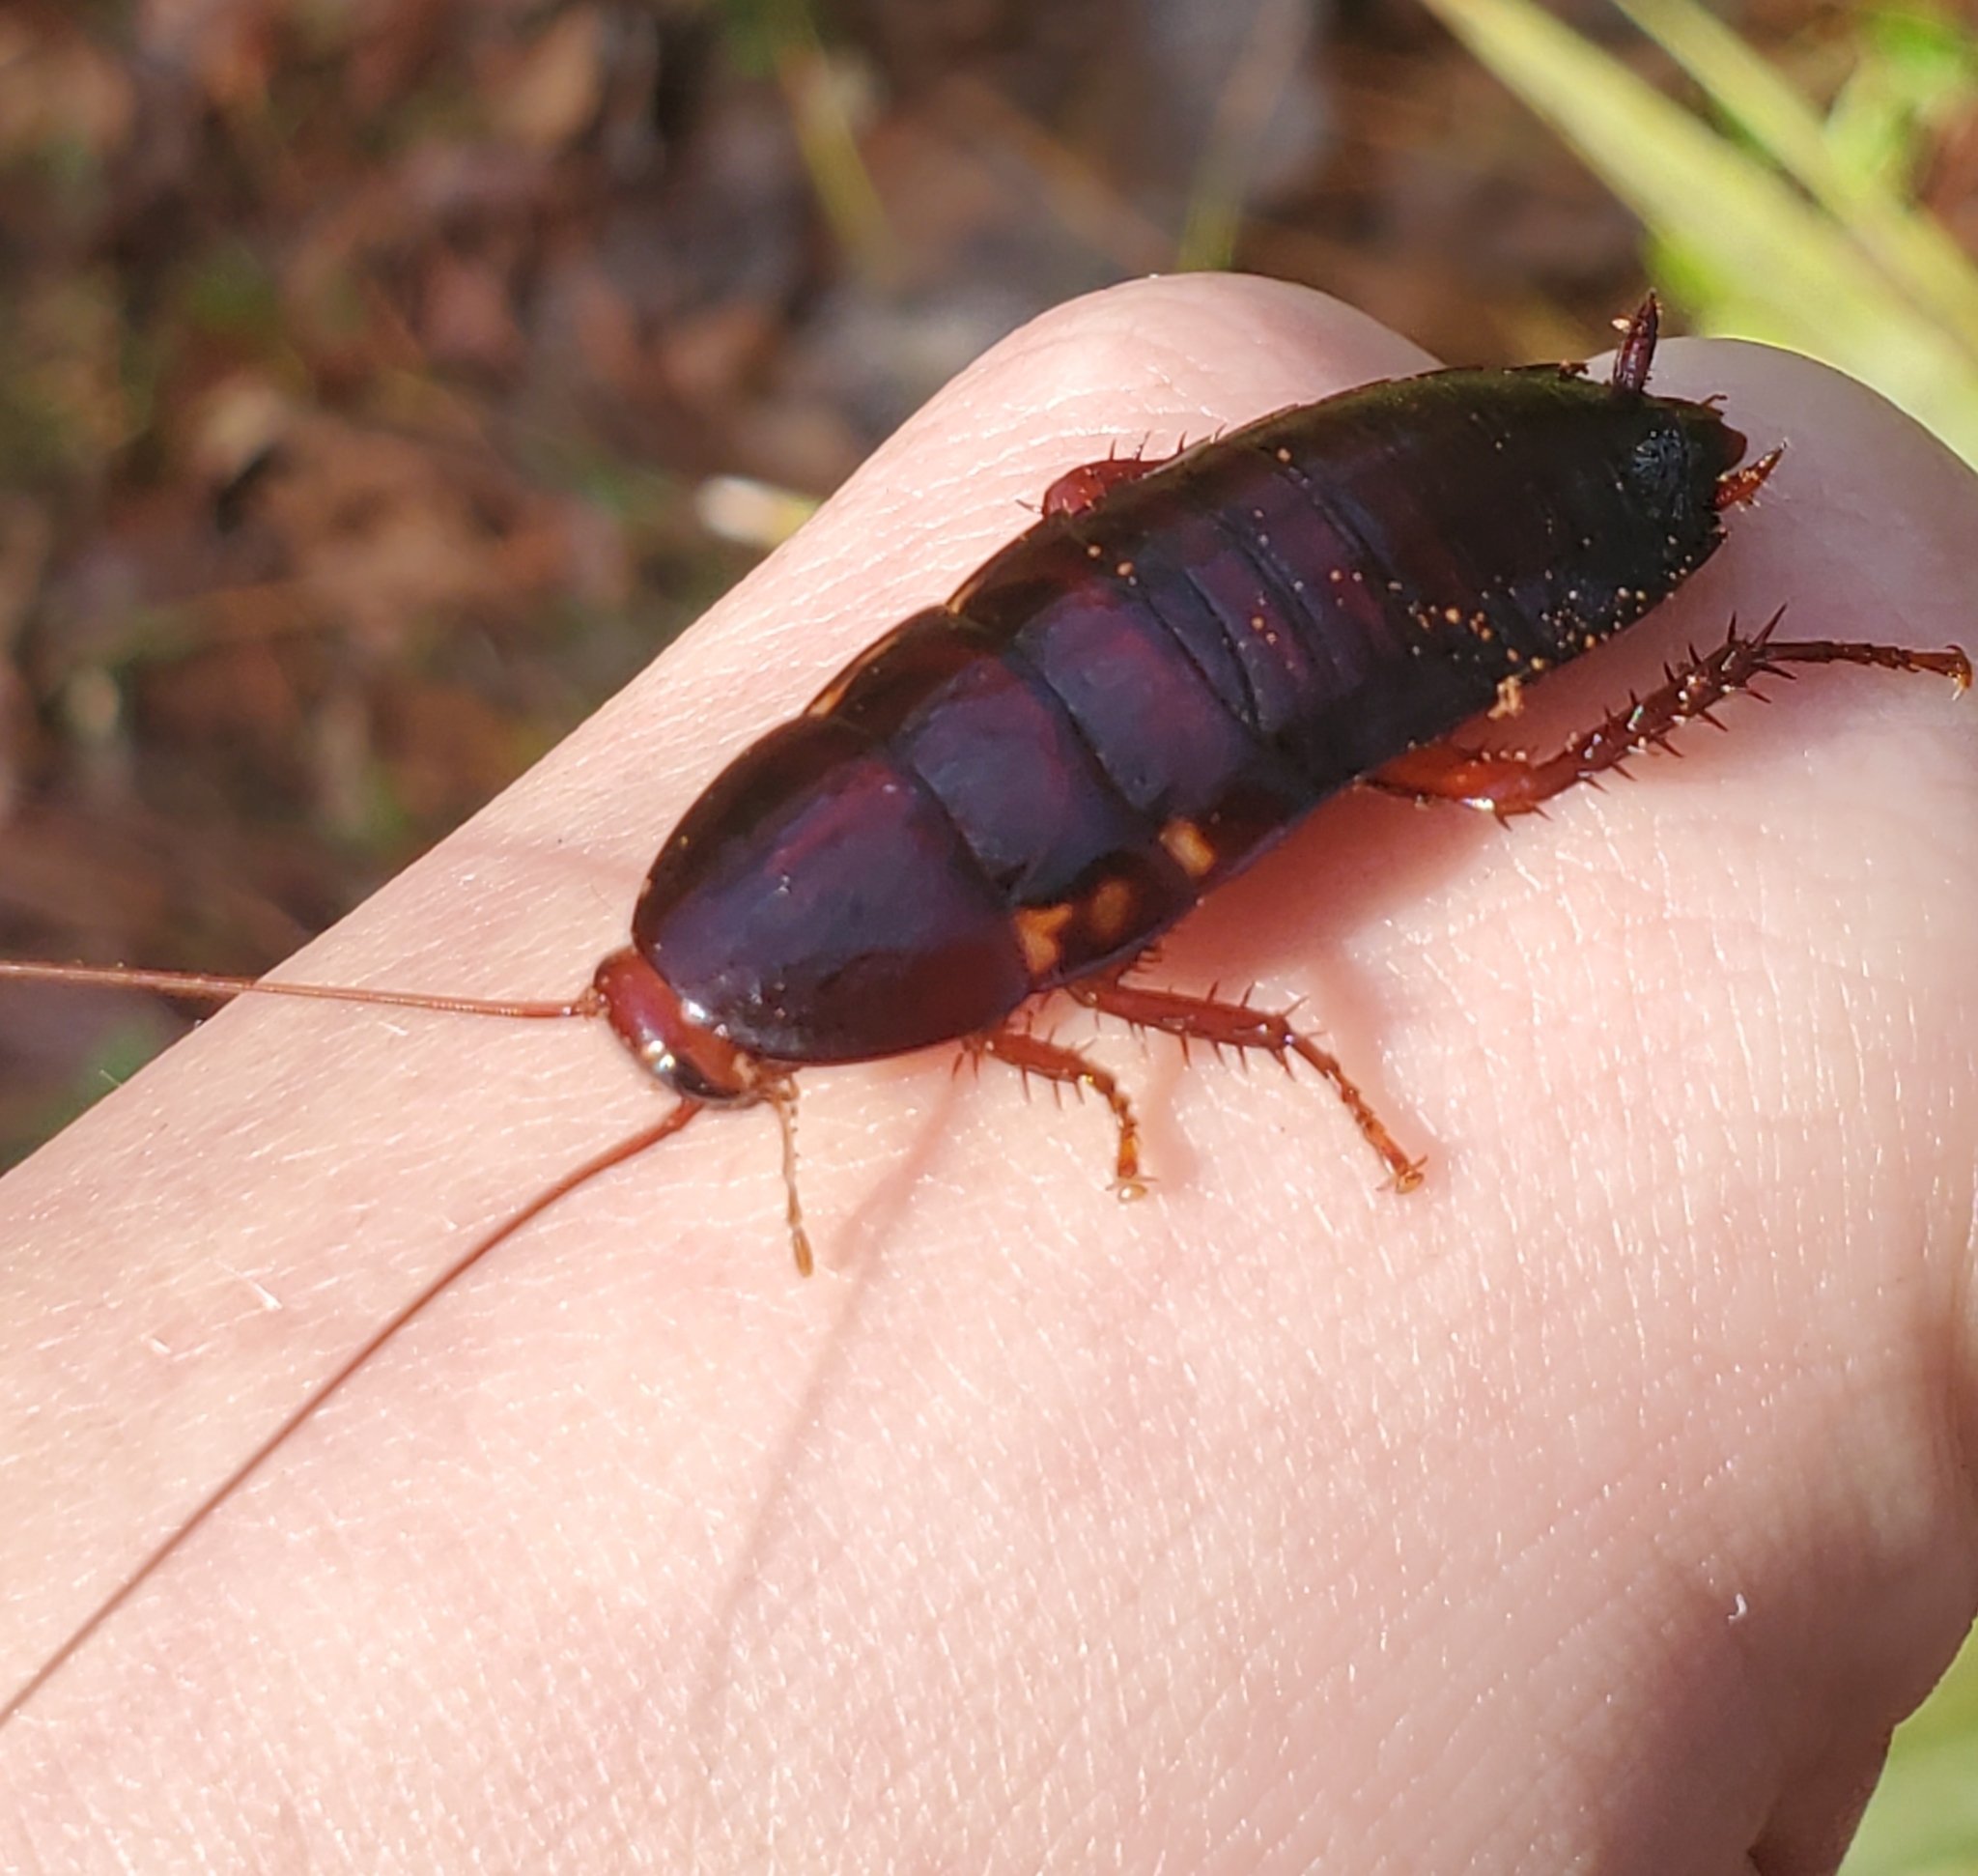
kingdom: Animalia
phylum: Arthropoda
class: Insecta
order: Blattodea
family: Blattidae
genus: Eurycotis
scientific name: Eurycotis floridana
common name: Florida cockroach
